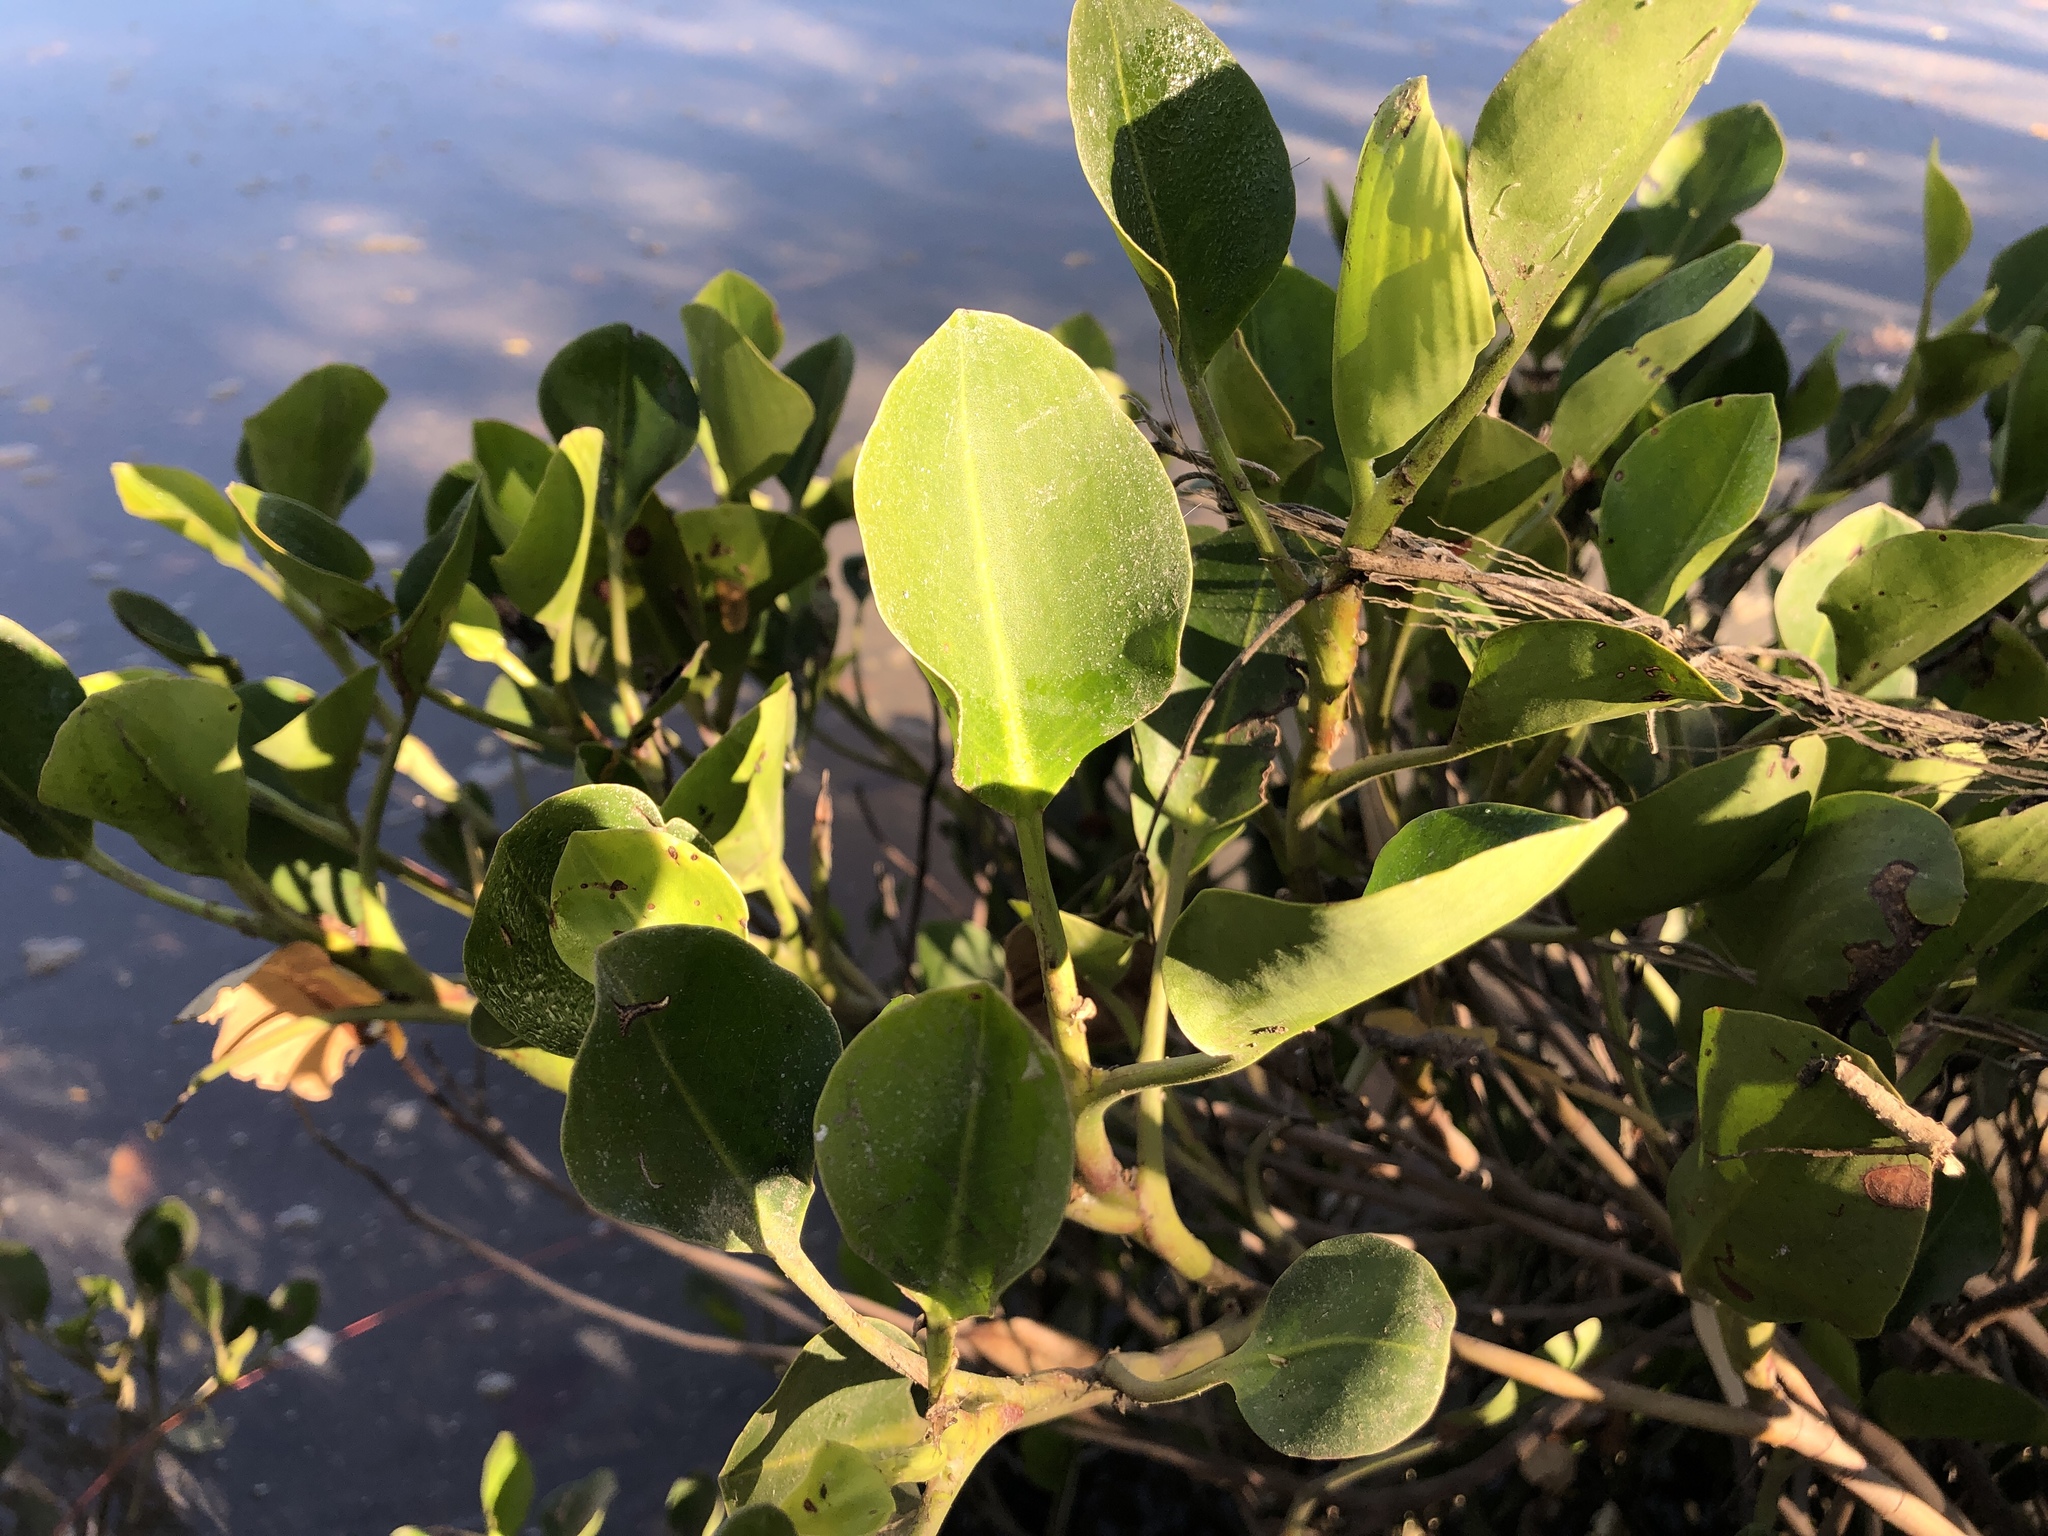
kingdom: Plantae
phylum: Tracheophyta
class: Magnoliopsida
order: Caryophyllales
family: Plumbaginaceae
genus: Aegialitis
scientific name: Aegialitis annulata
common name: Club mangrove
